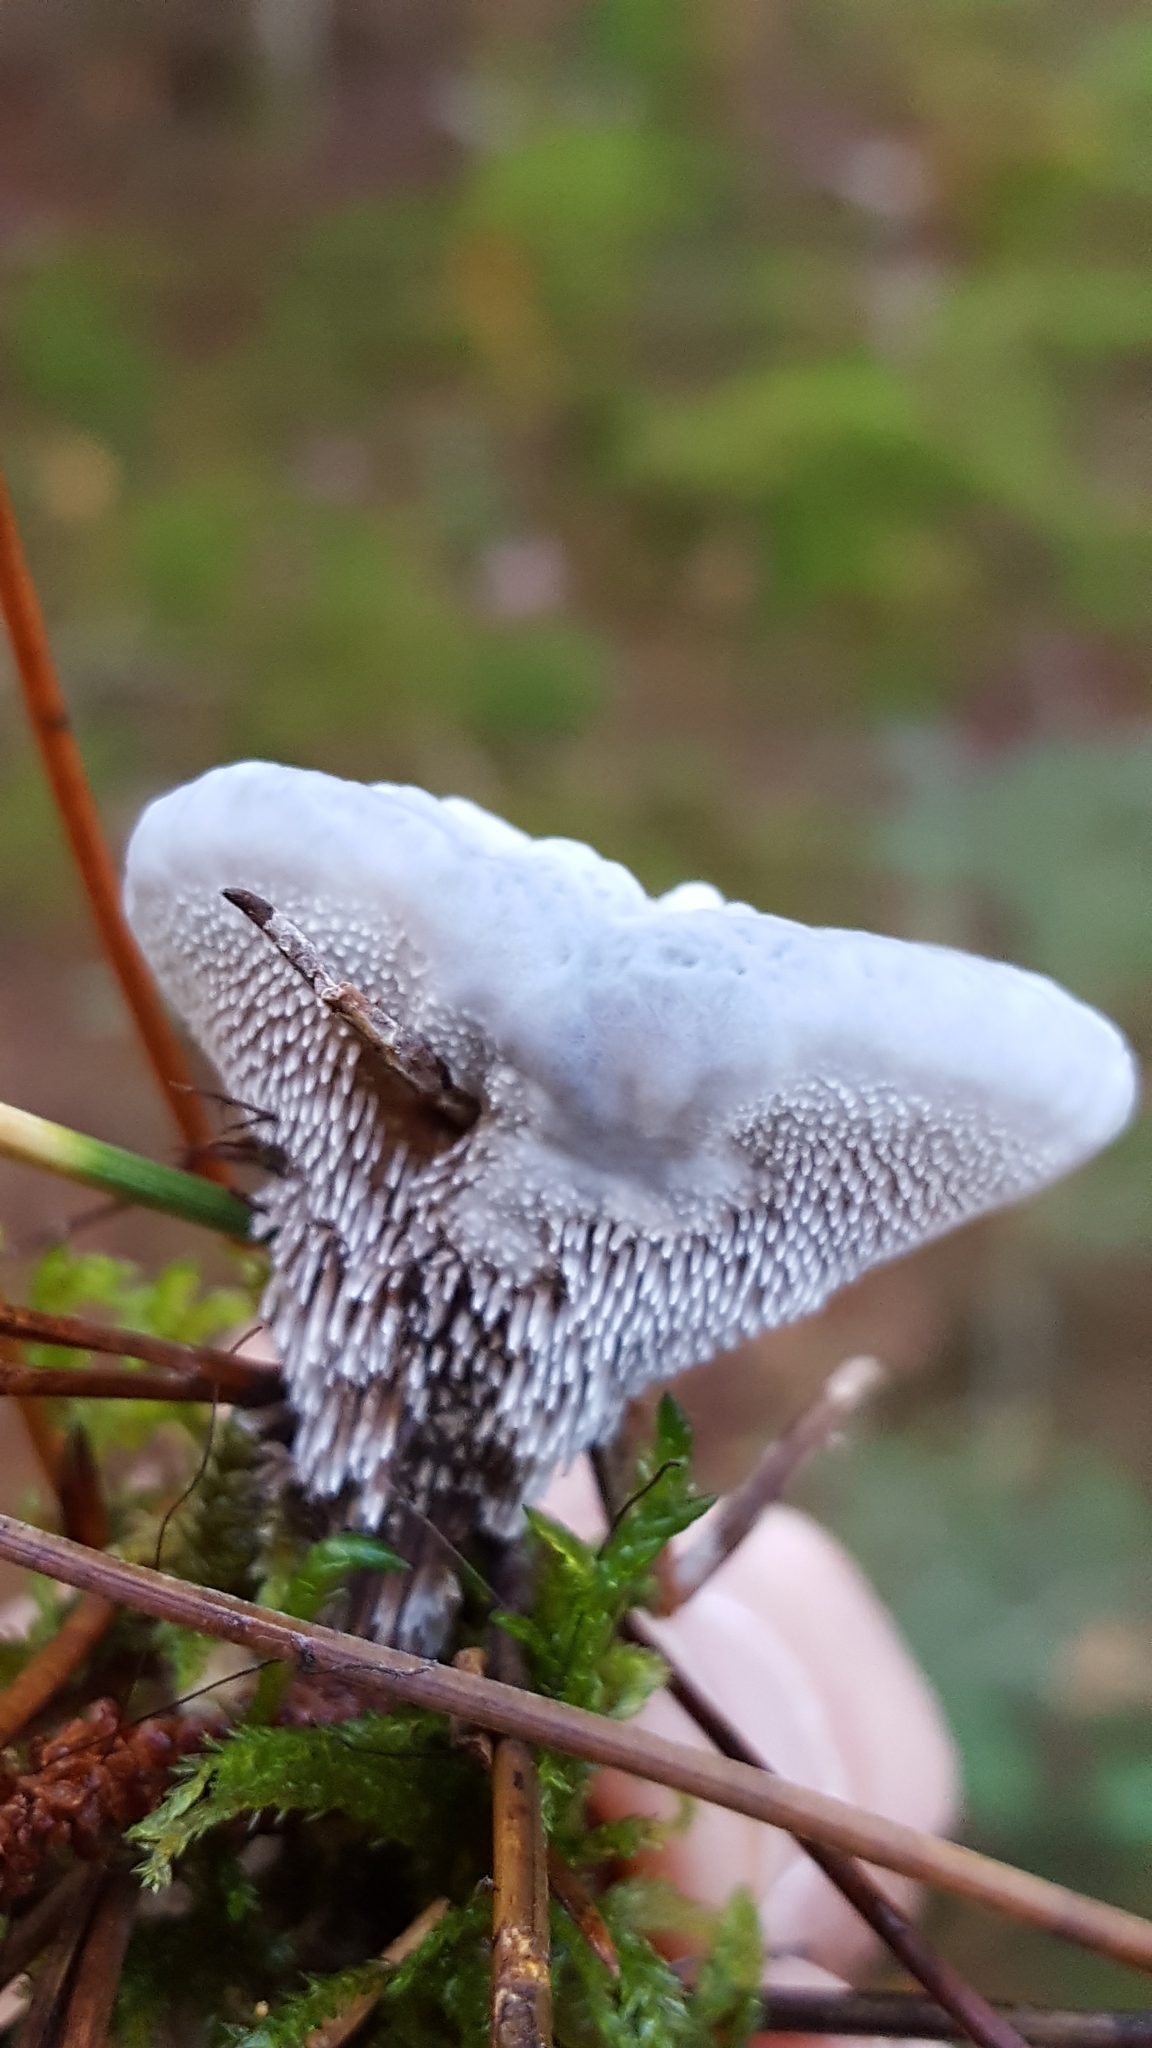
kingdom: Fungi
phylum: Basidiomycota
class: Agaricomycetes
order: Thelephorales
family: Bankeraceae
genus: Hydnellum
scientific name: Hydnellum caeruleum
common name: Blue corky spine fungus
